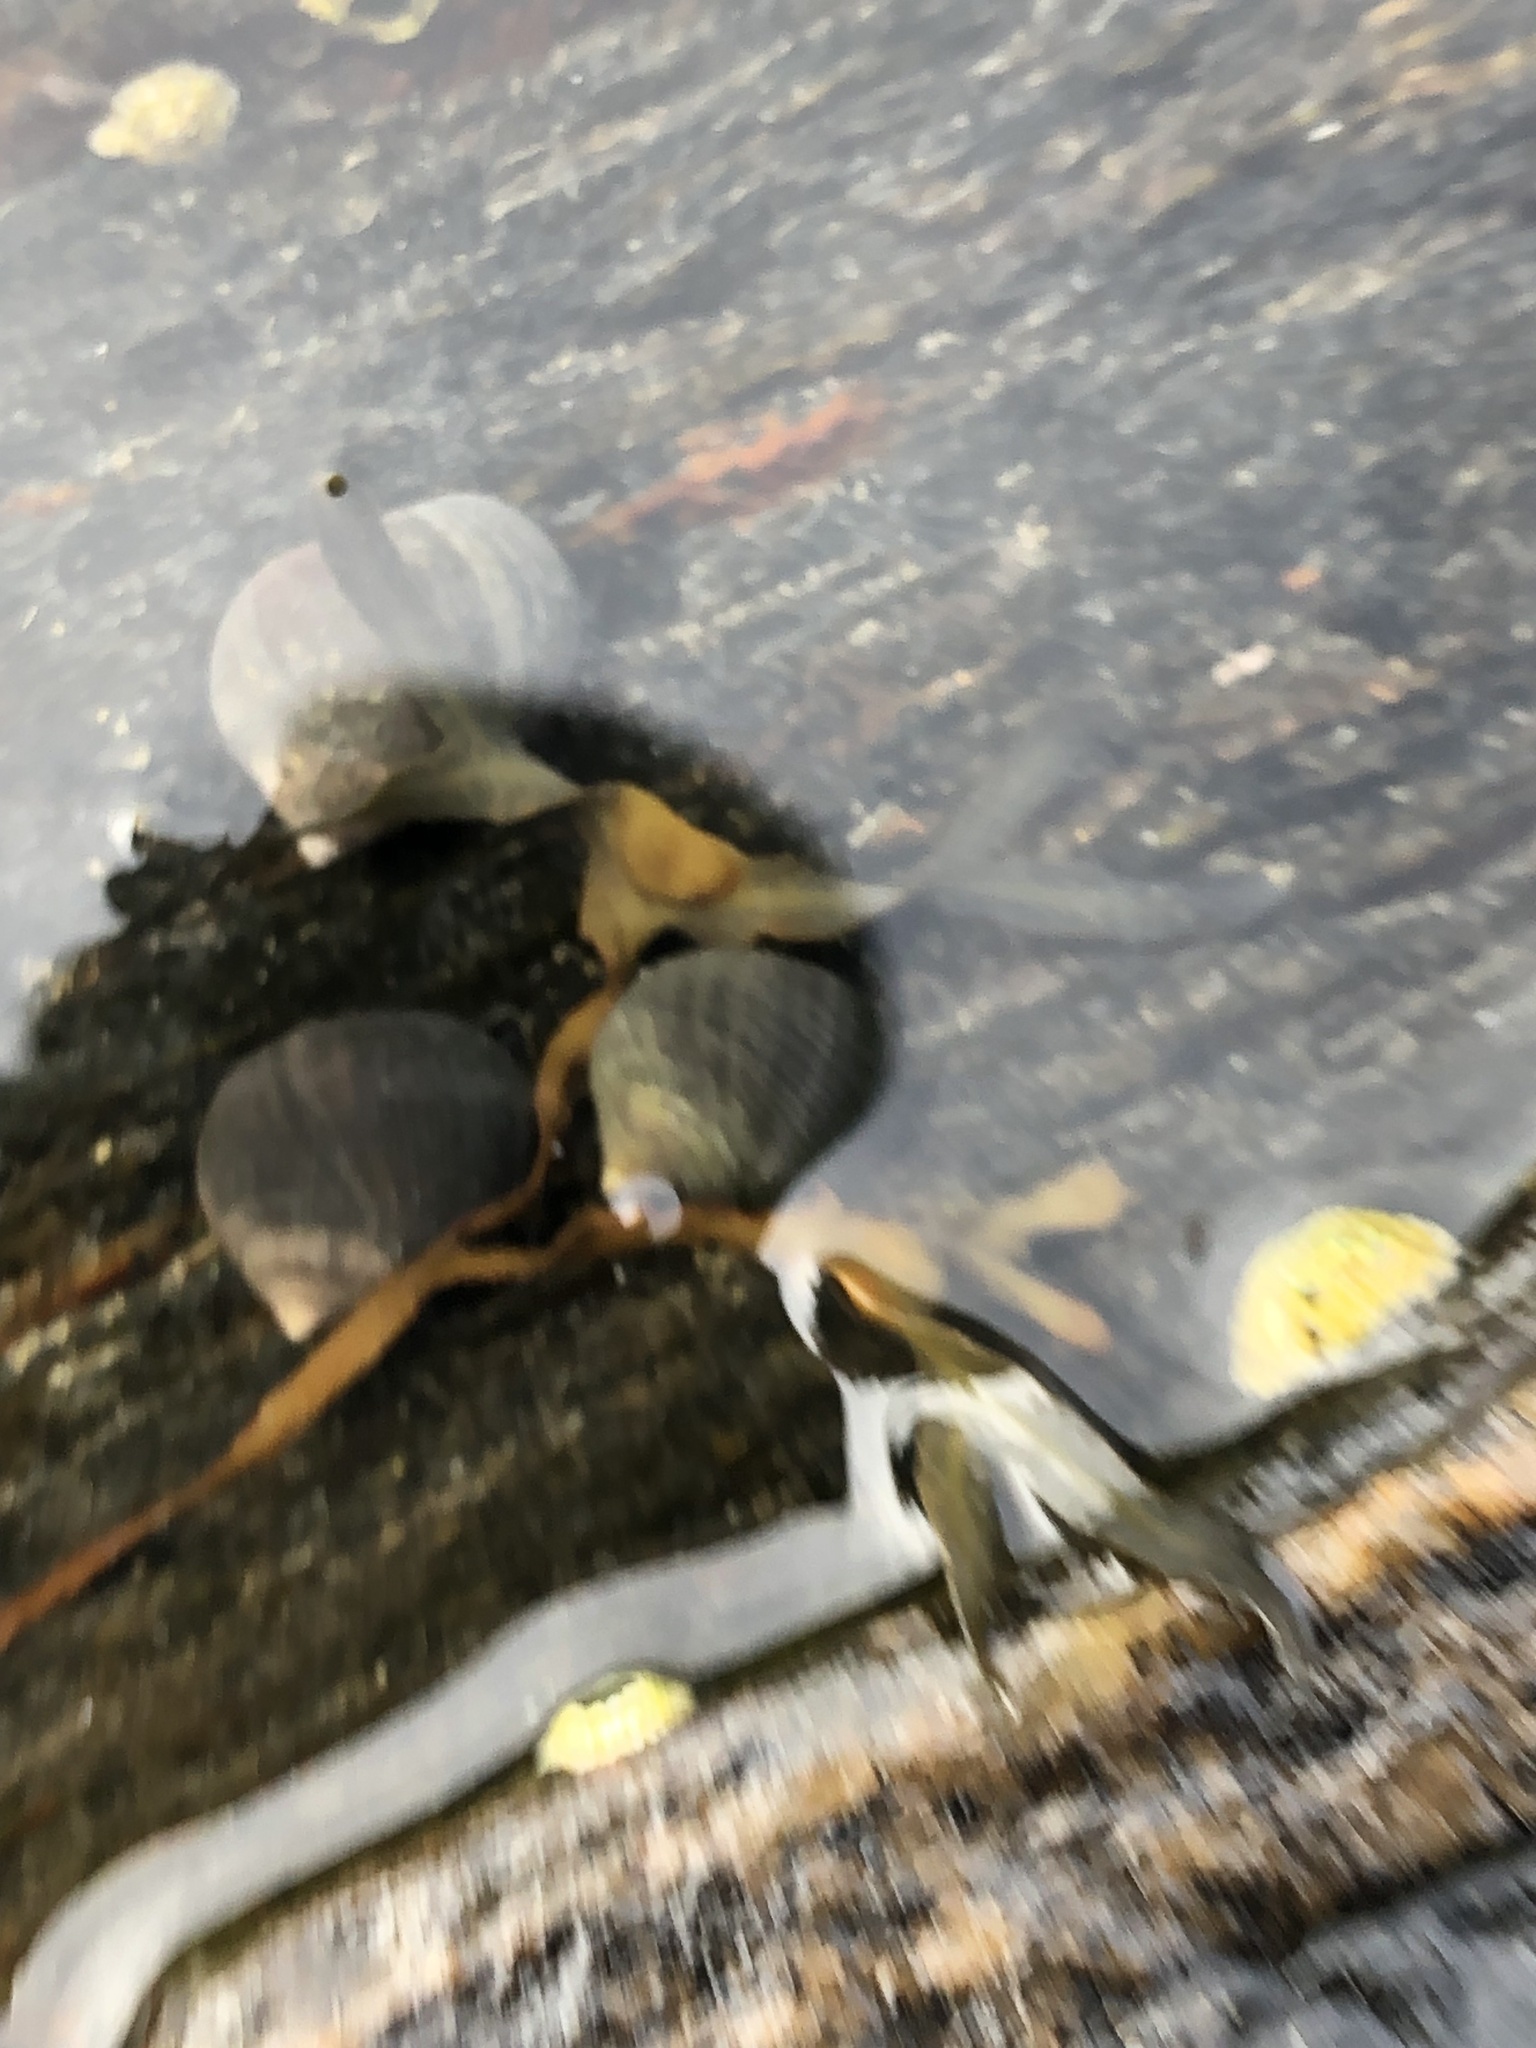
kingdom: Animalia
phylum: Mollusca
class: Gastropoda
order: Littorinimorpha
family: Littorinidae
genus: Littorina
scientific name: Littorina littorea
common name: Common periwinkle
